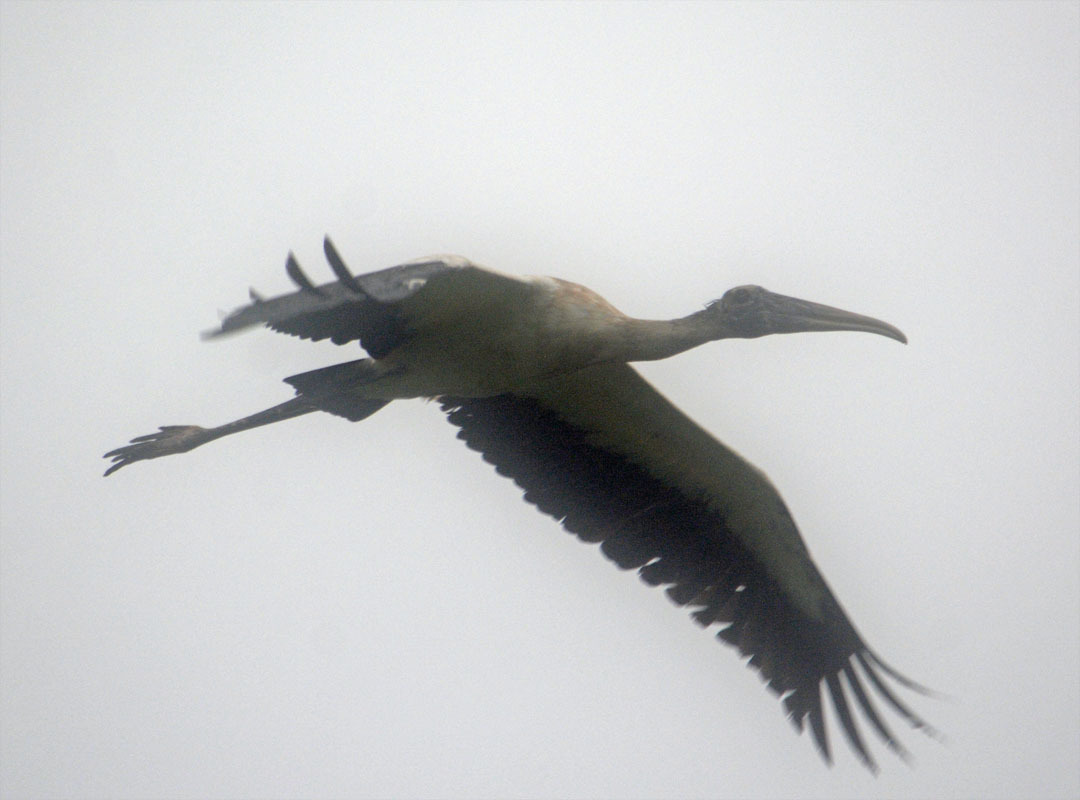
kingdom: Animalia
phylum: Chordata
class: Aves
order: Ciconiiformes
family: Ciconiidae
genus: Mycteria
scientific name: Mycteria americana
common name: Wood stork
